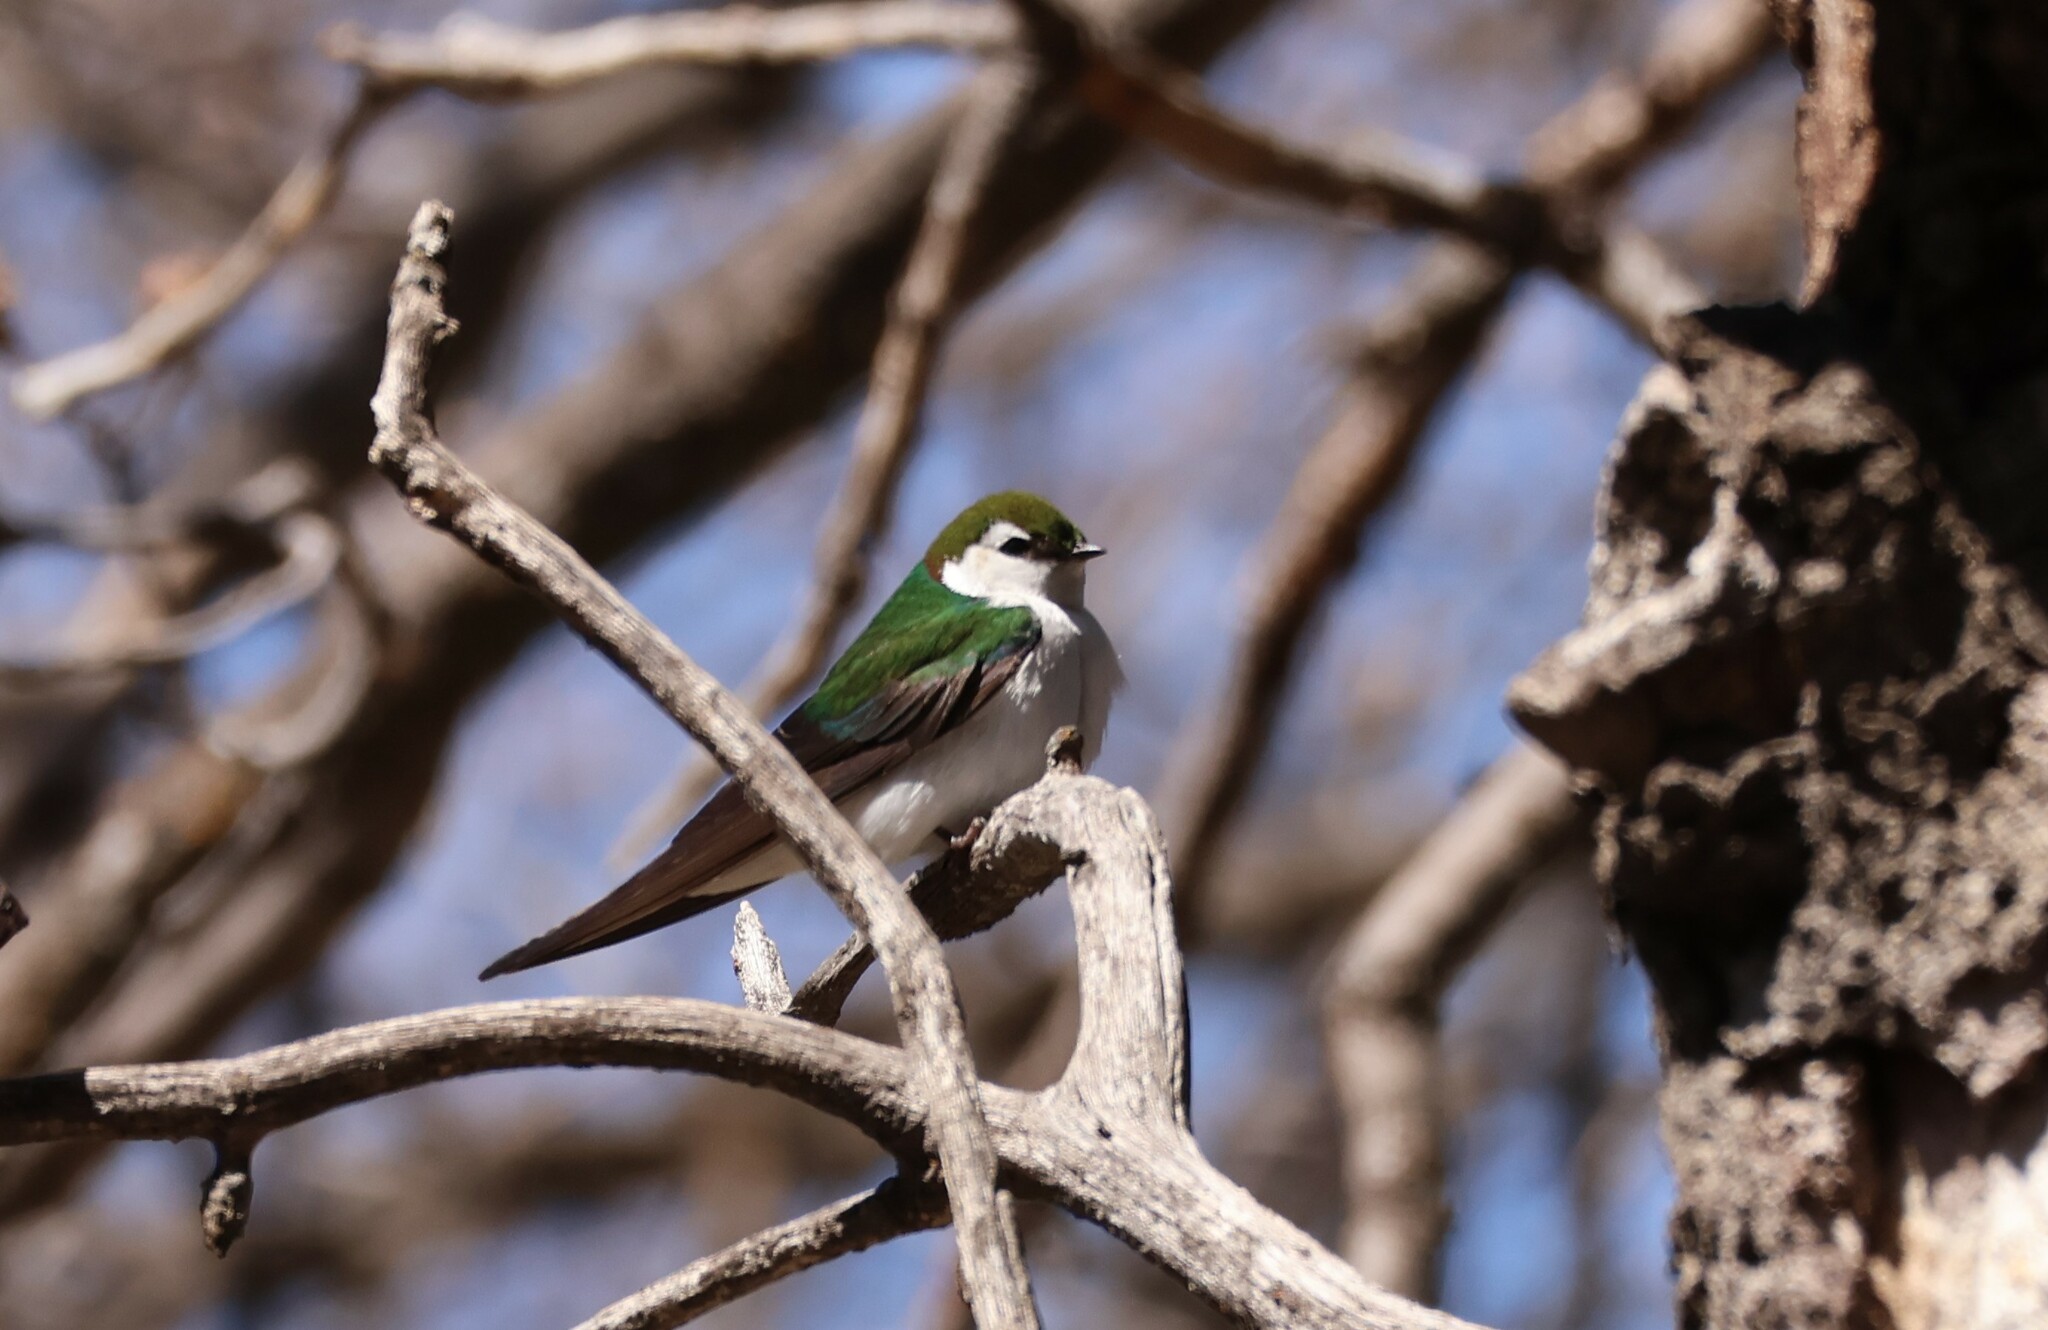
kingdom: Animalia
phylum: Chordata
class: Aves
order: Passeriformes
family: Hirundinidae
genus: Tachycineta
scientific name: Tachycineta thalassina
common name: Violet-green swallow
